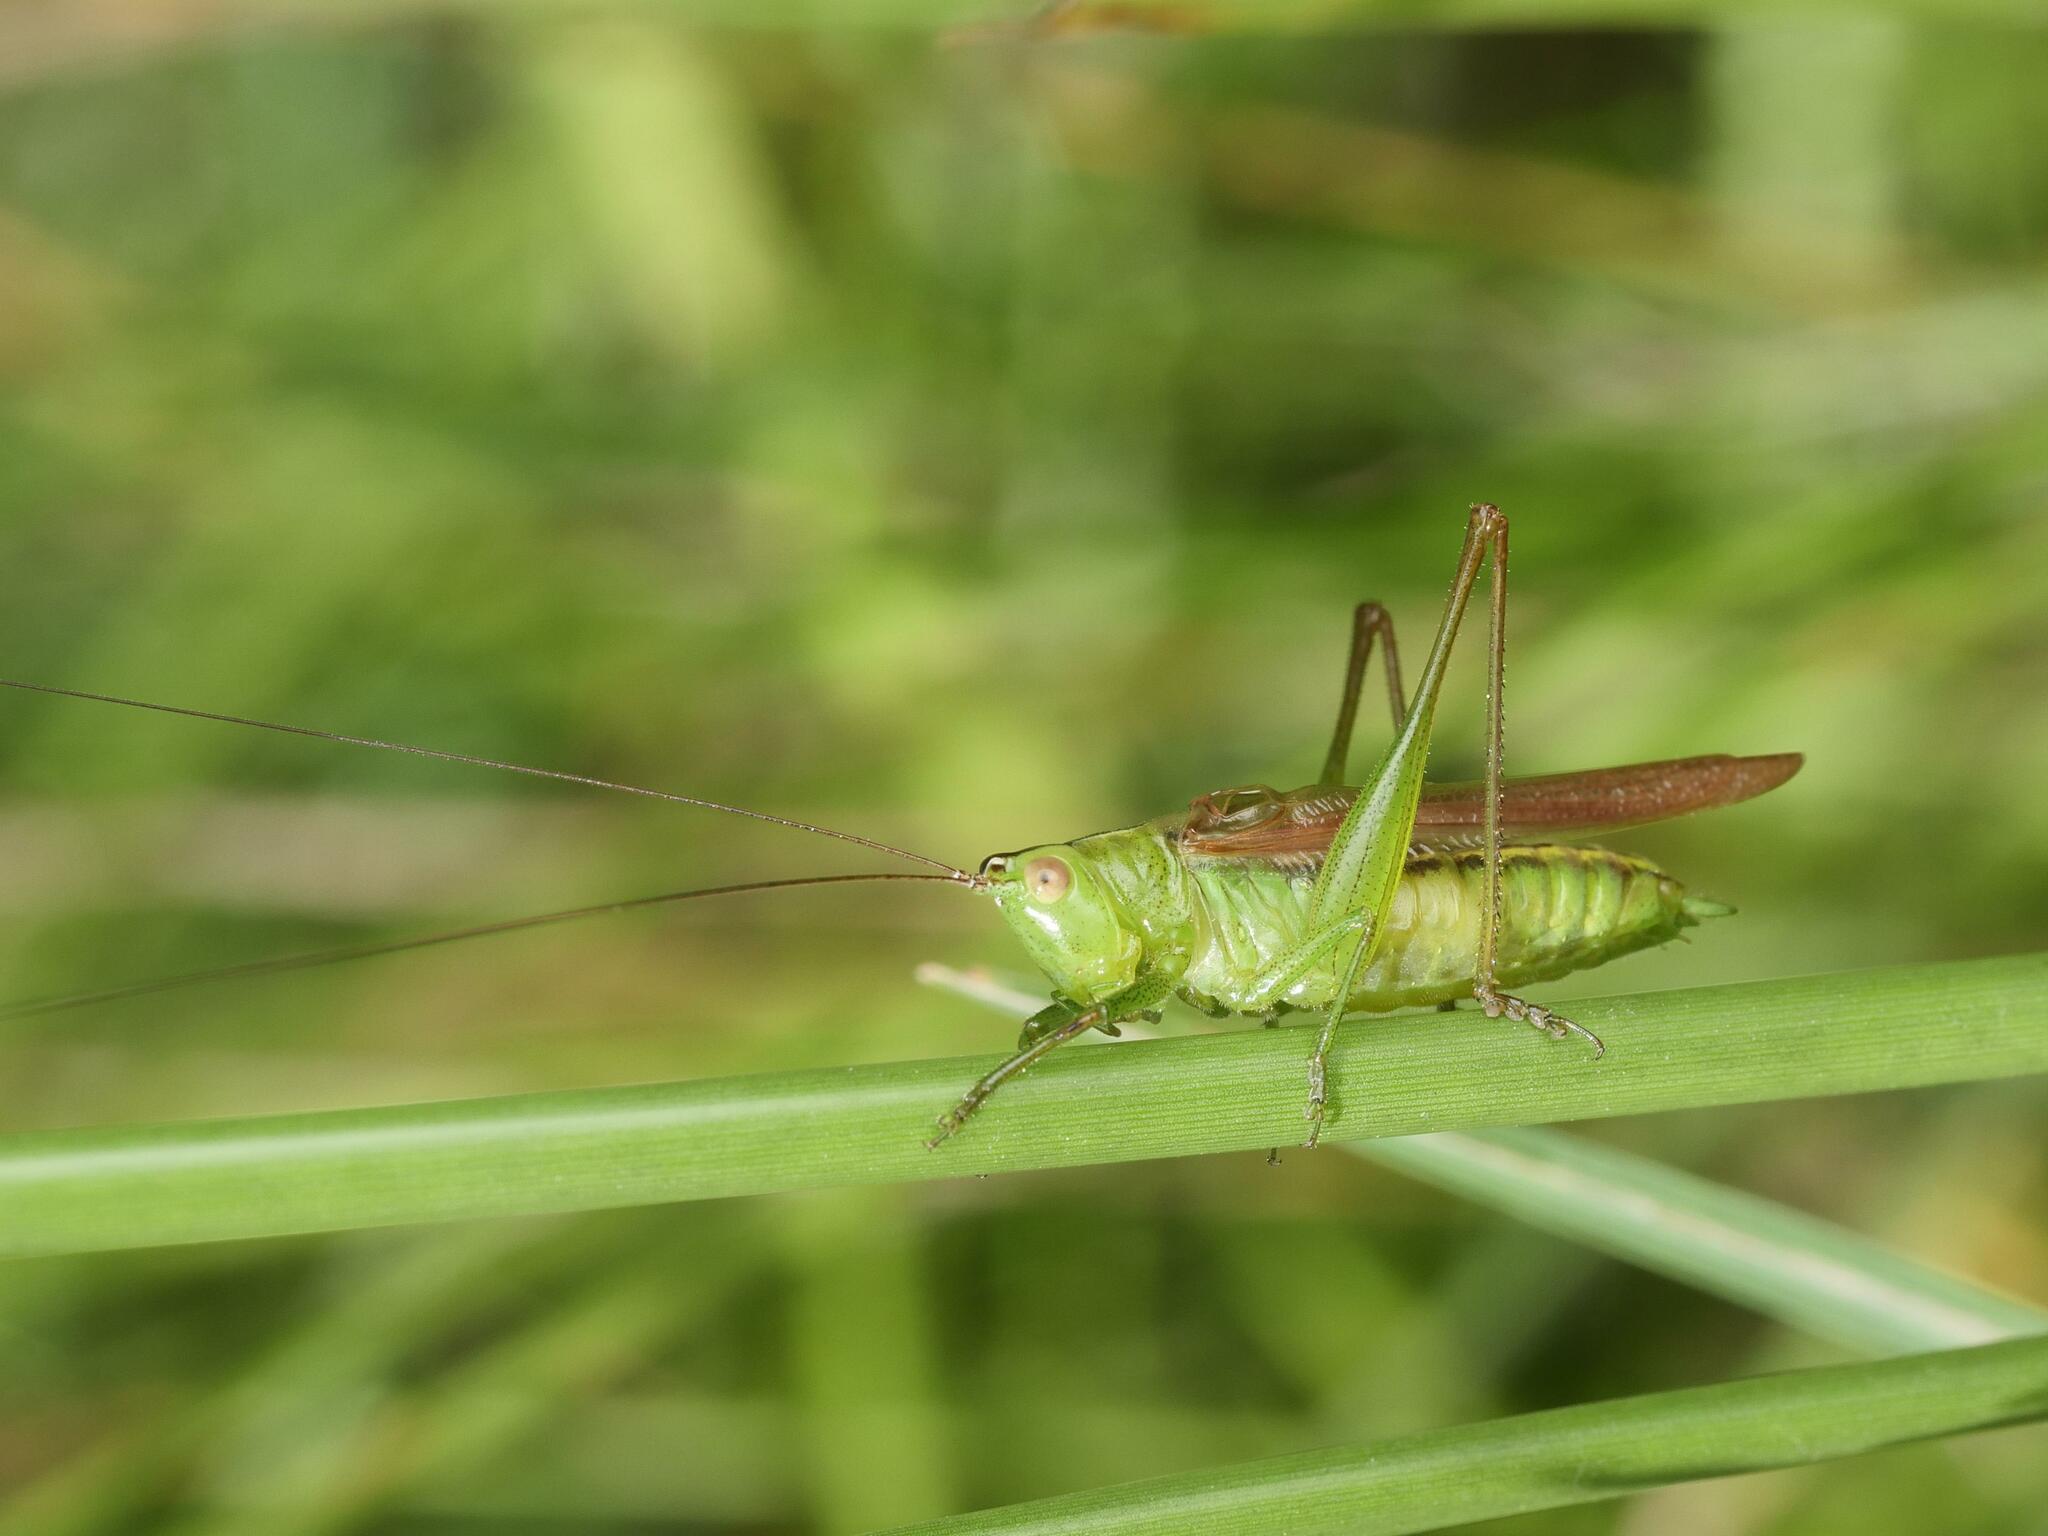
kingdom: Animalia
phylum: Arthropoda
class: Insecta
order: Orthoptera
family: Tettigoniidae
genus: Conocephalus
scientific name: Conocephalus fasciatus
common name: Slender meadow katydid
